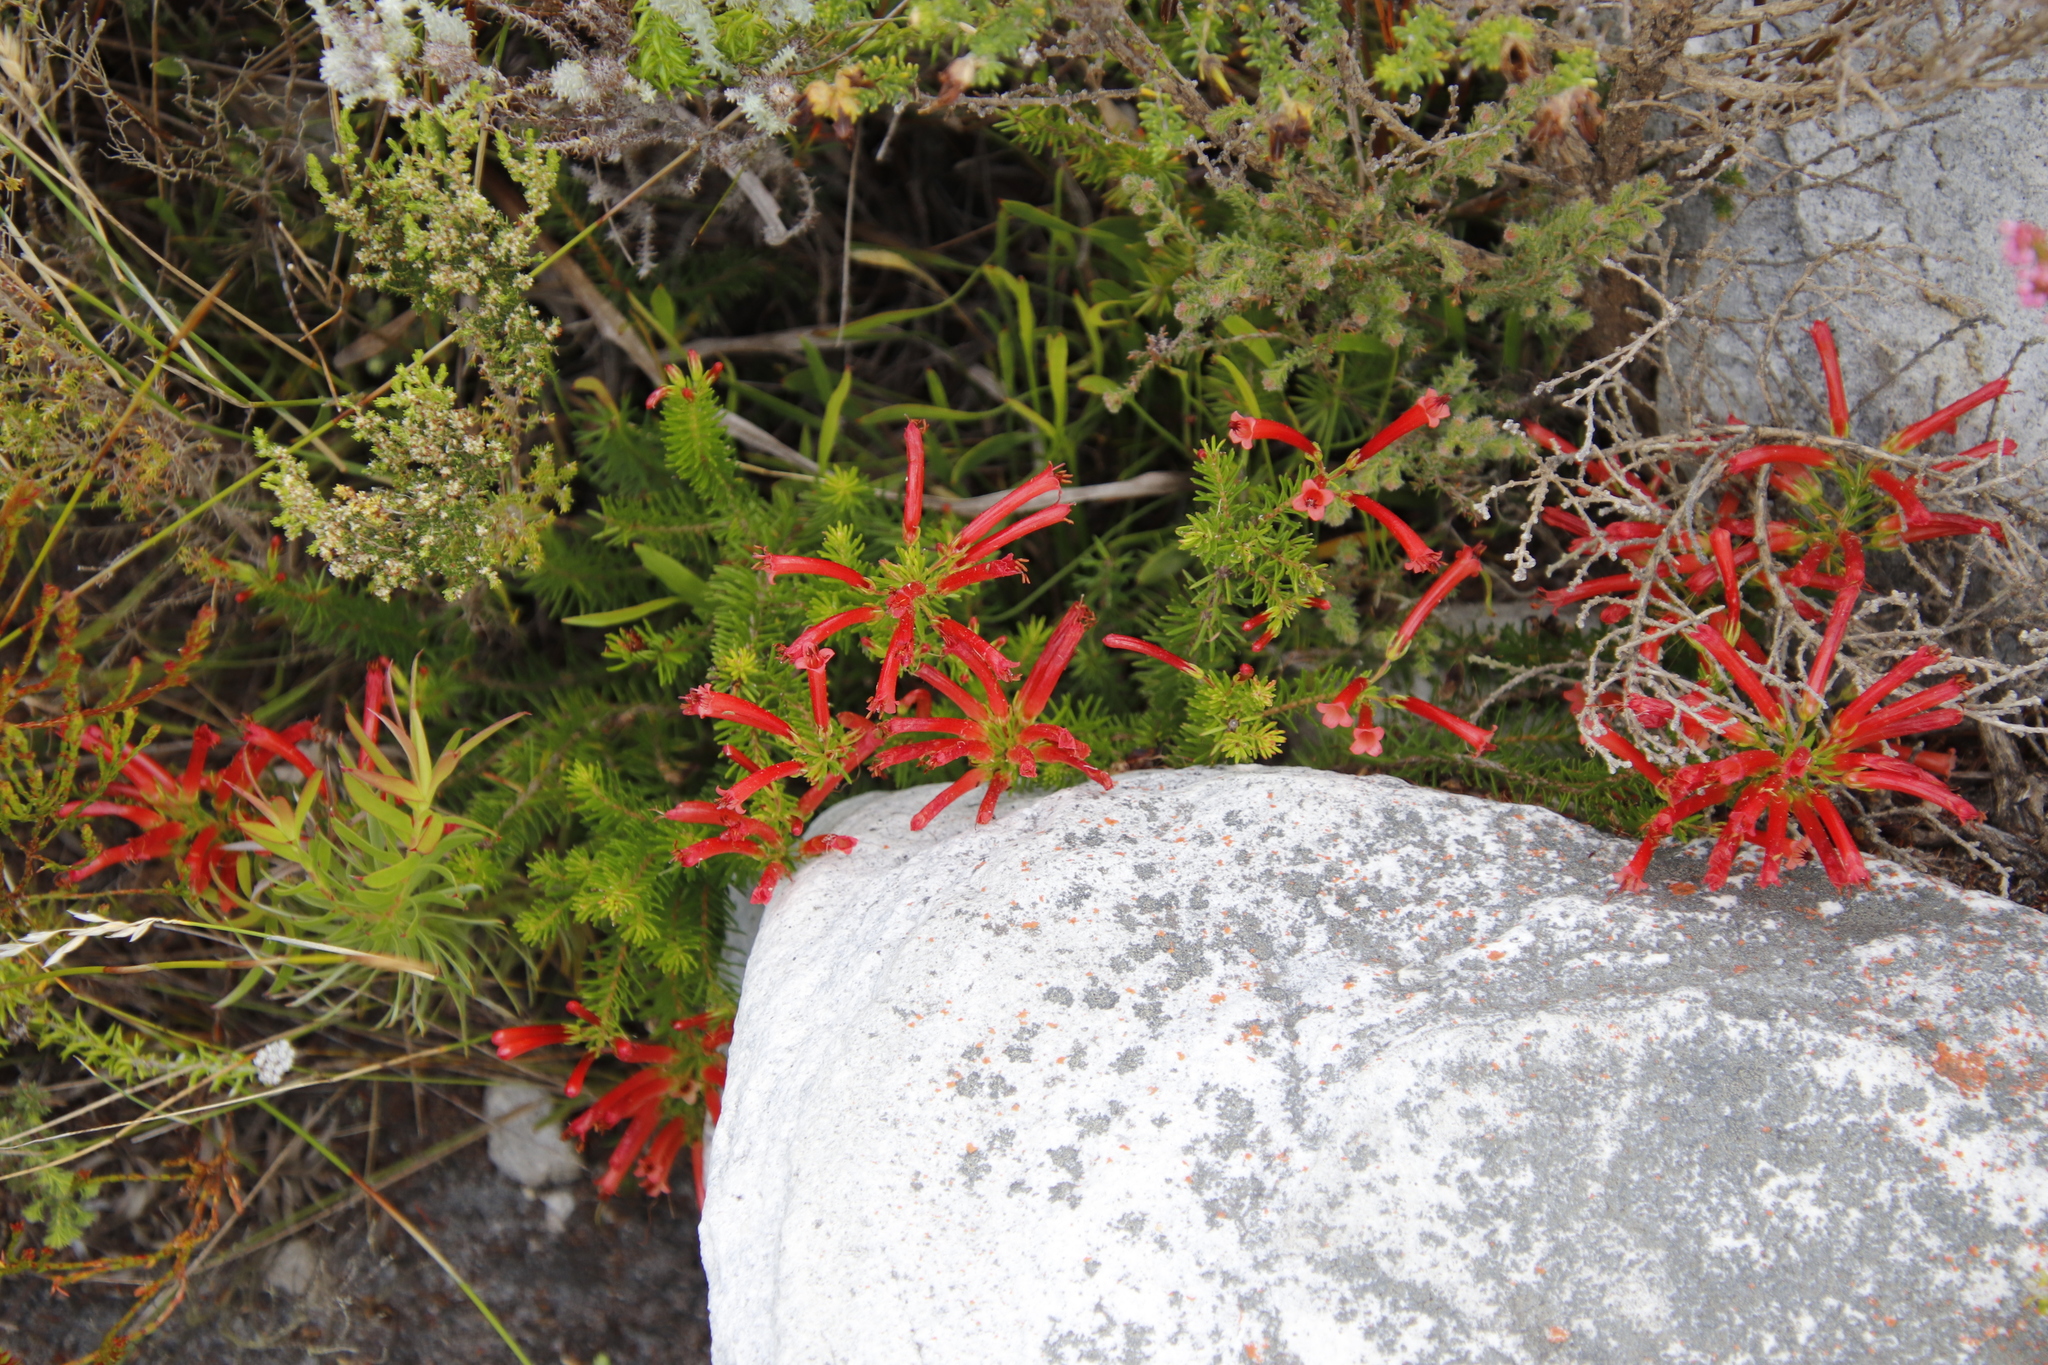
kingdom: Plantae
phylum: Tracheophyta
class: Magnoliopsida
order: Ericales
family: Ericaceae
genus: Erica
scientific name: Erica nevillei
